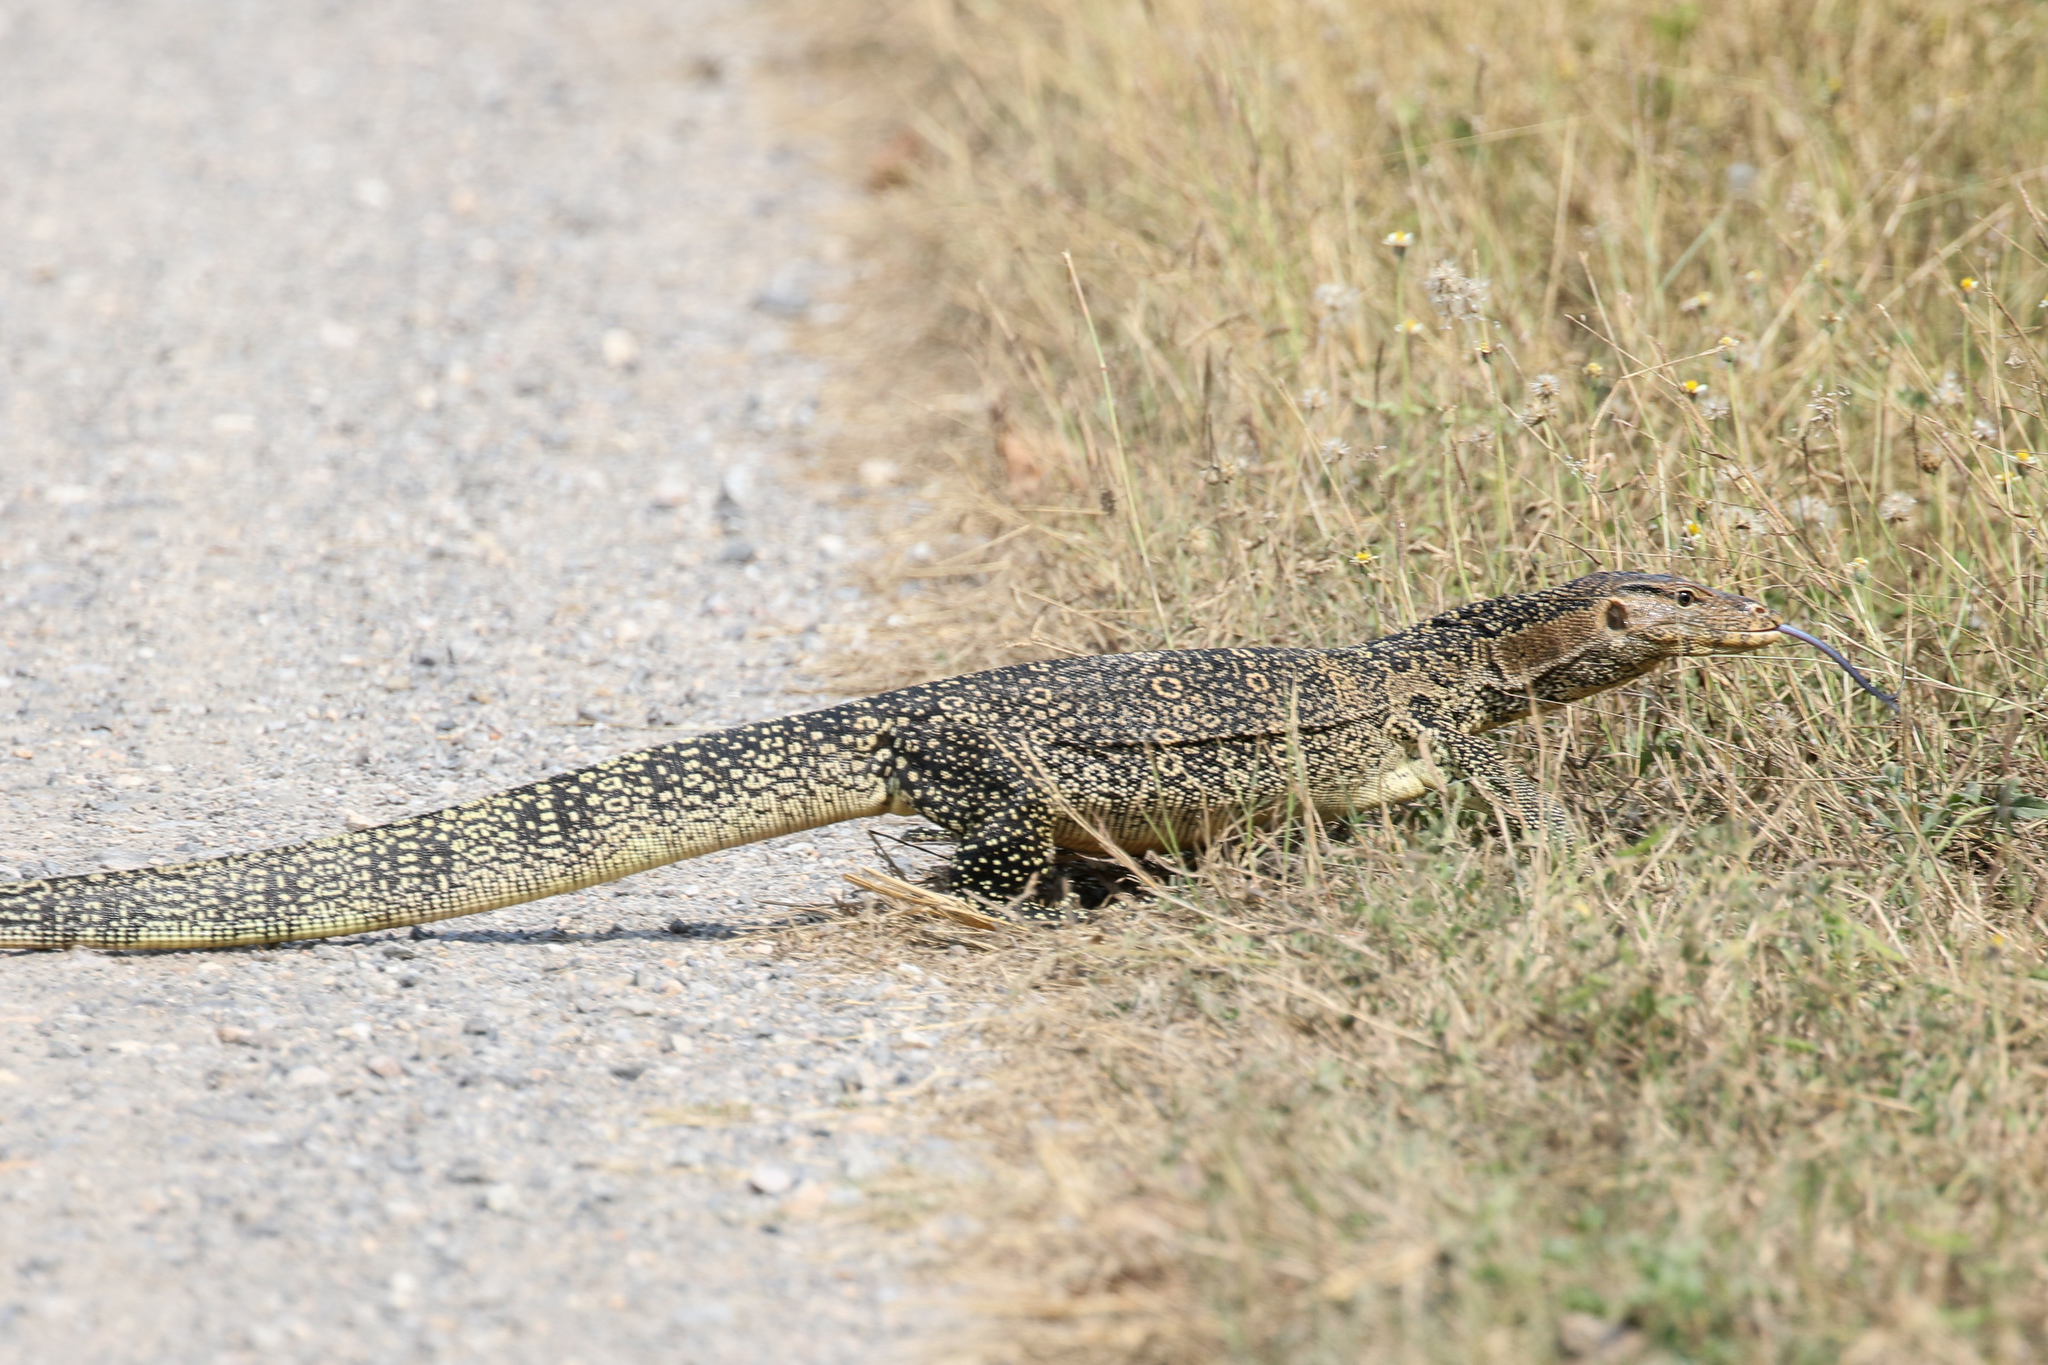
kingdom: Animalia
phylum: Chordata
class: Squamata
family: Varanidae
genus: Varanus
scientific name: Varanus salvator
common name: Common water monitor
